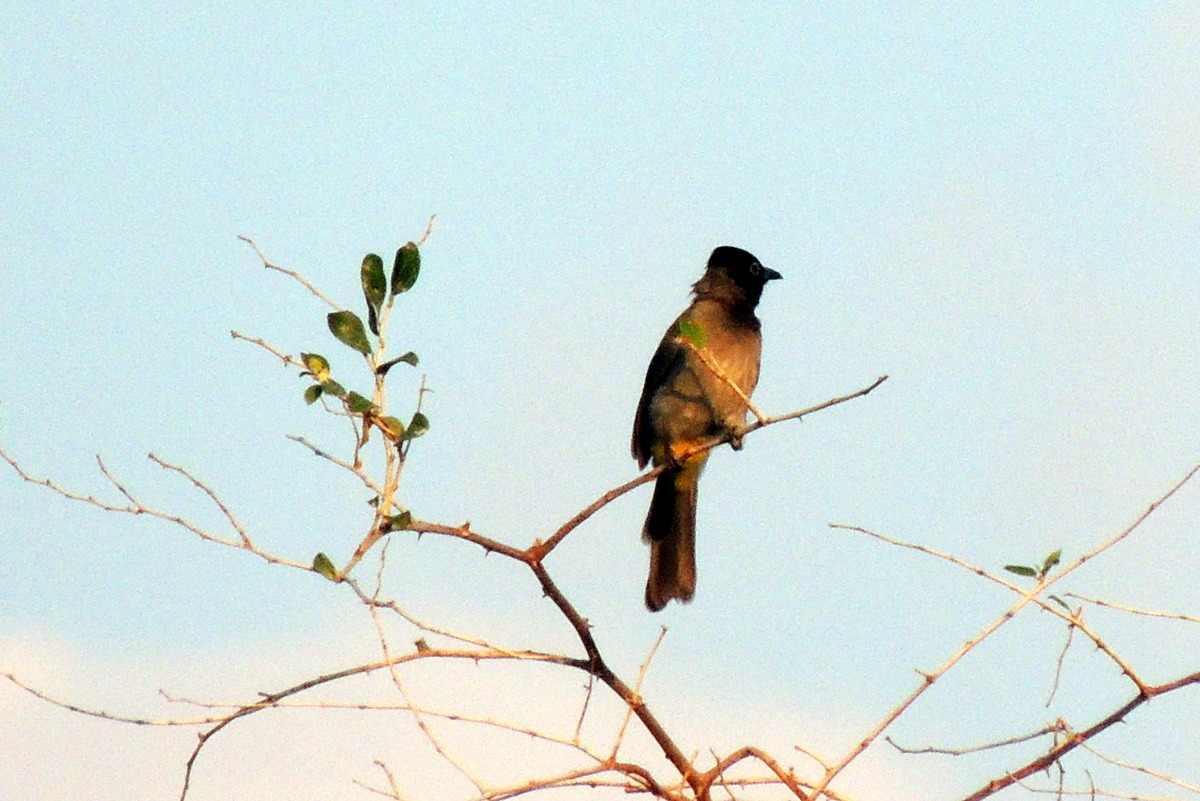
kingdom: Animalia
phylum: Chordata
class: Aves
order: Passeriformes
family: Pycnonotidae
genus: Pycnonotus
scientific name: Pycnonotus xanthopygos
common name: White-spectacled bulbul
